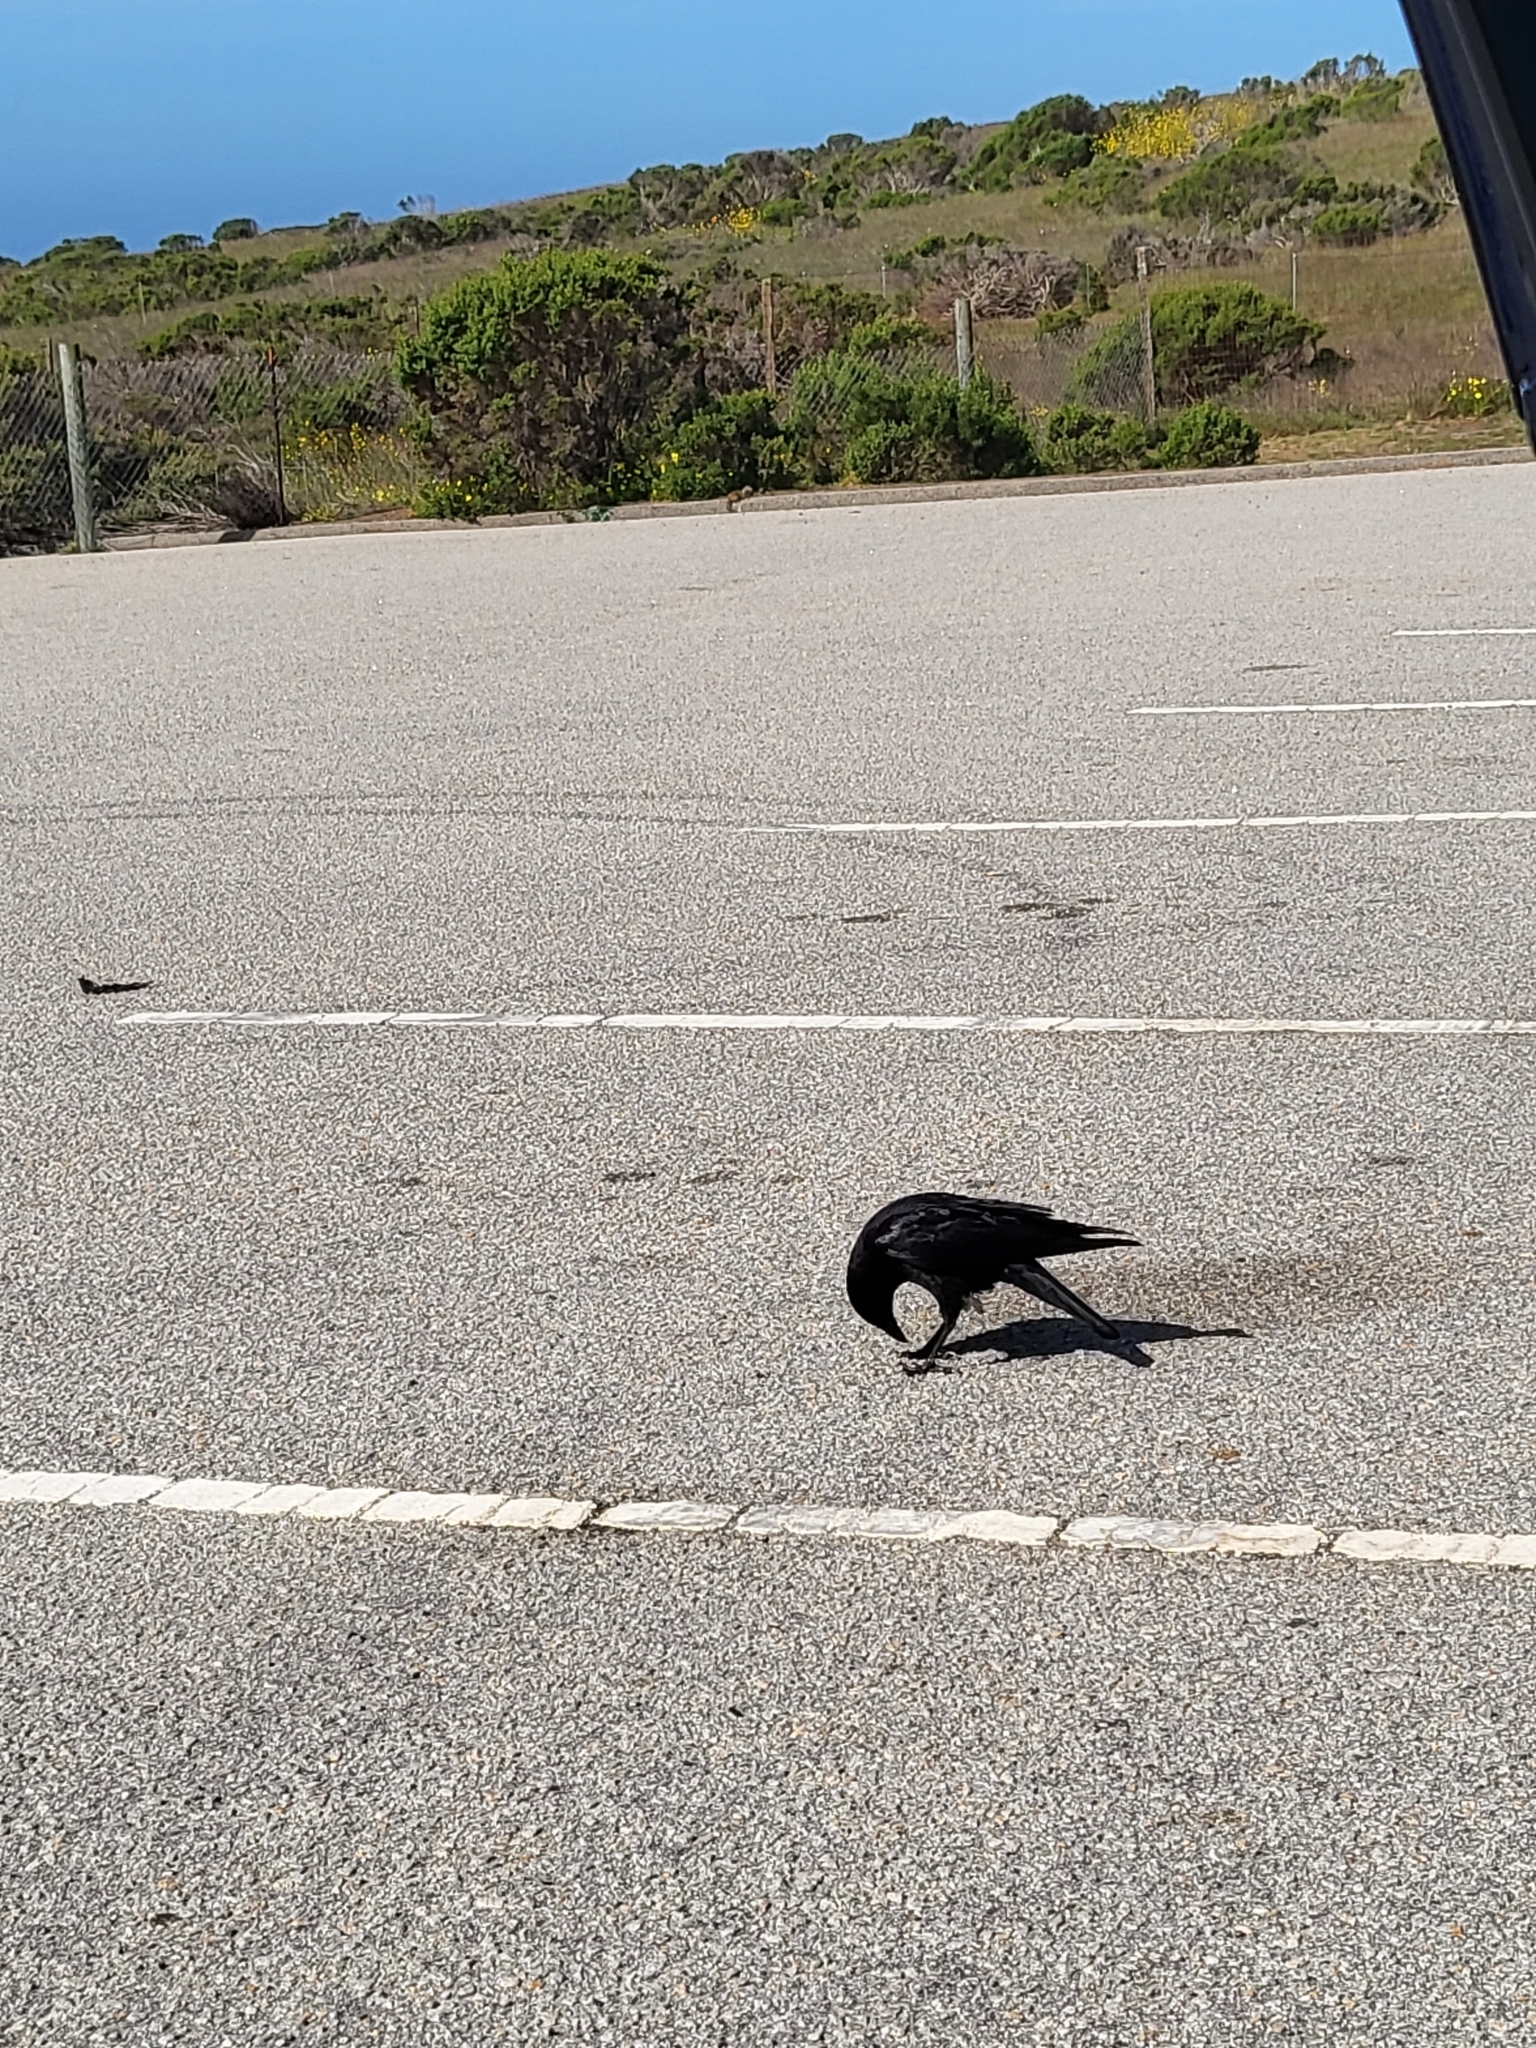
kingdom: Animalia
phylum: Chordata
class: Aves
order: Passeriformes
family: Corvidae
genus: Corvus
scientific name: Corvus brachyrhynchos
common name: American crow
